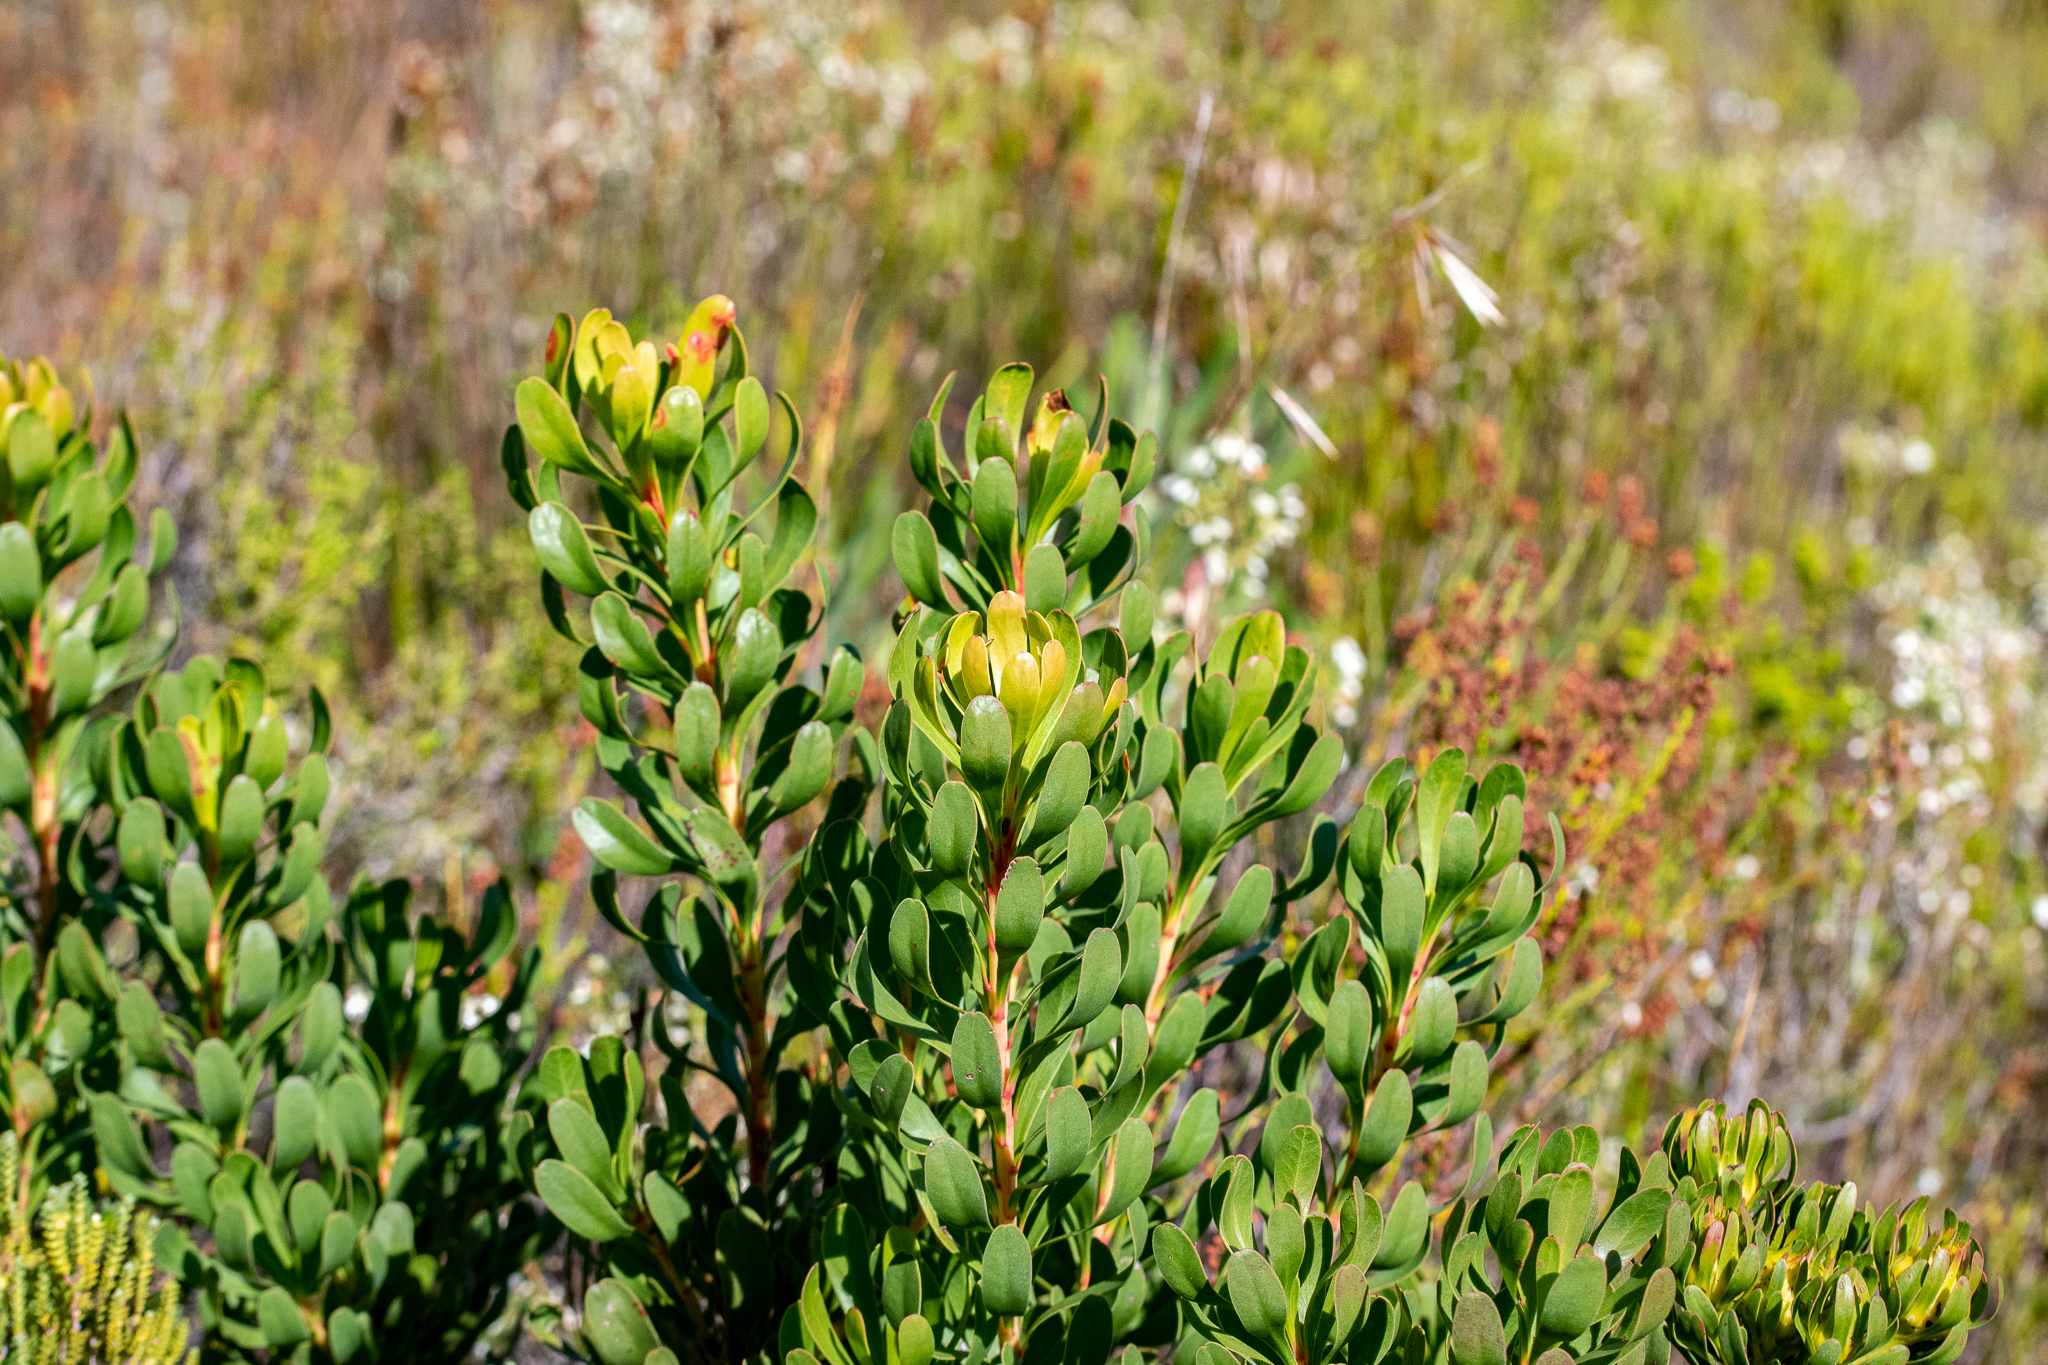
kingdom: Plantae
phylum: Tracheophyta
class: Magnoliopsida
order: Proteales
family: Proteaceae
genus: Aulax
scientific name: Aulax umbellata
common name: Broad-leaf featherbush
